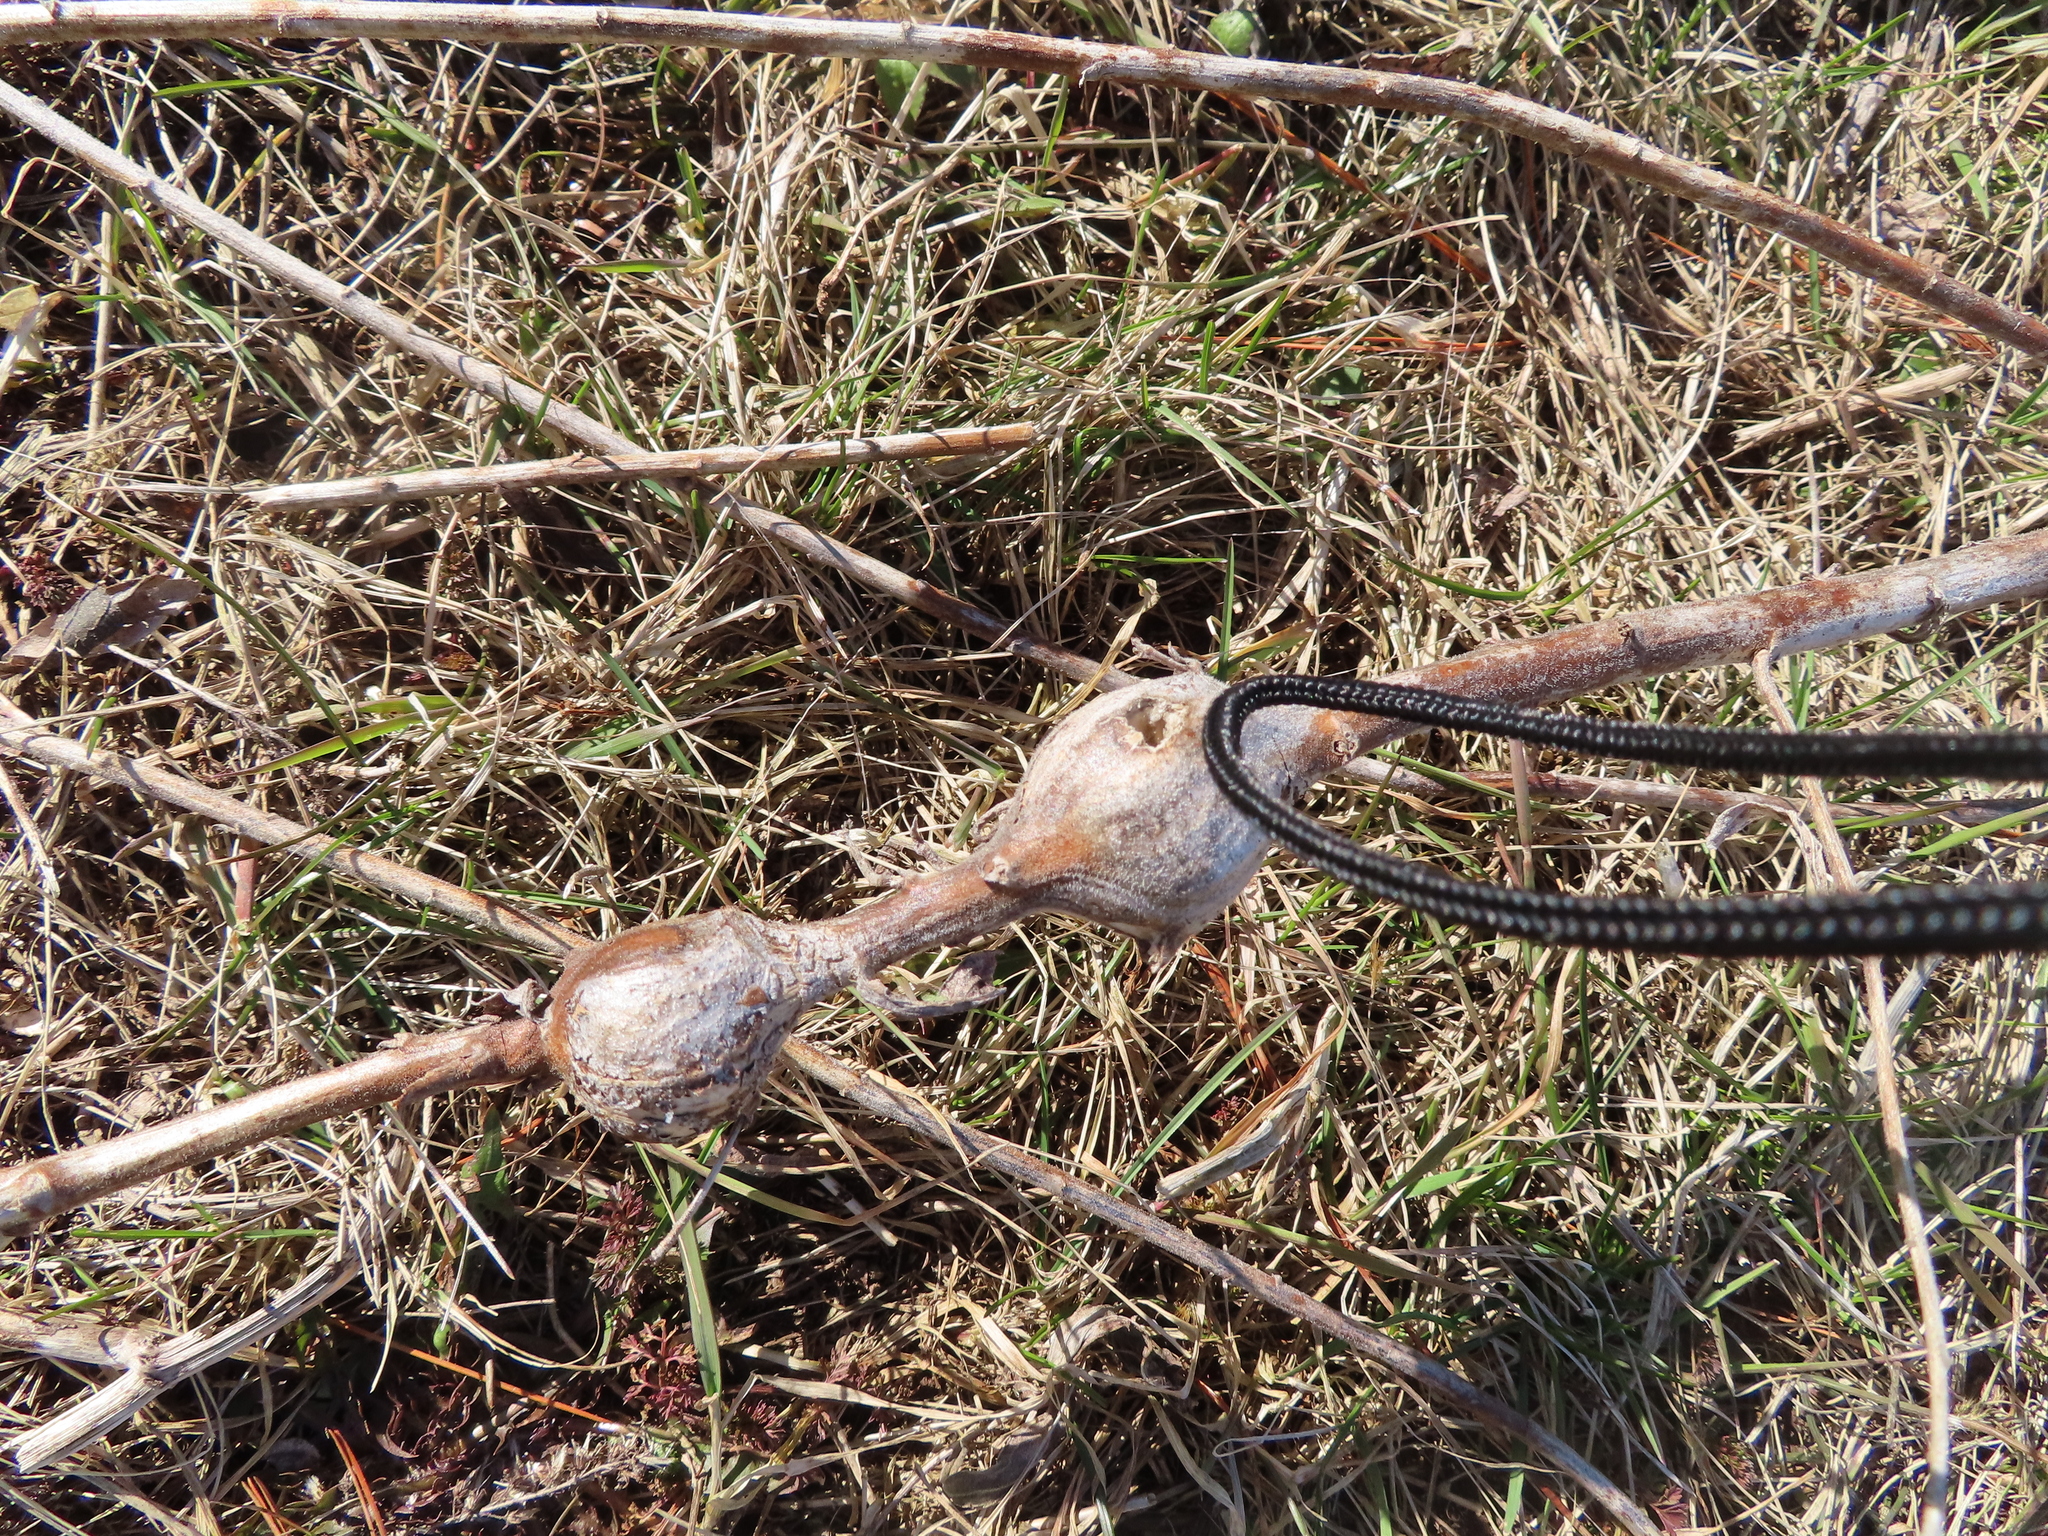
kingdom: Animalia
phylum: Arthropoda
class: Insecta
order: Diptera
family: Tephritidae
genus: Eurosta
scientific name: Eurosta solidaginis
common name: Goldenrod gall fly
